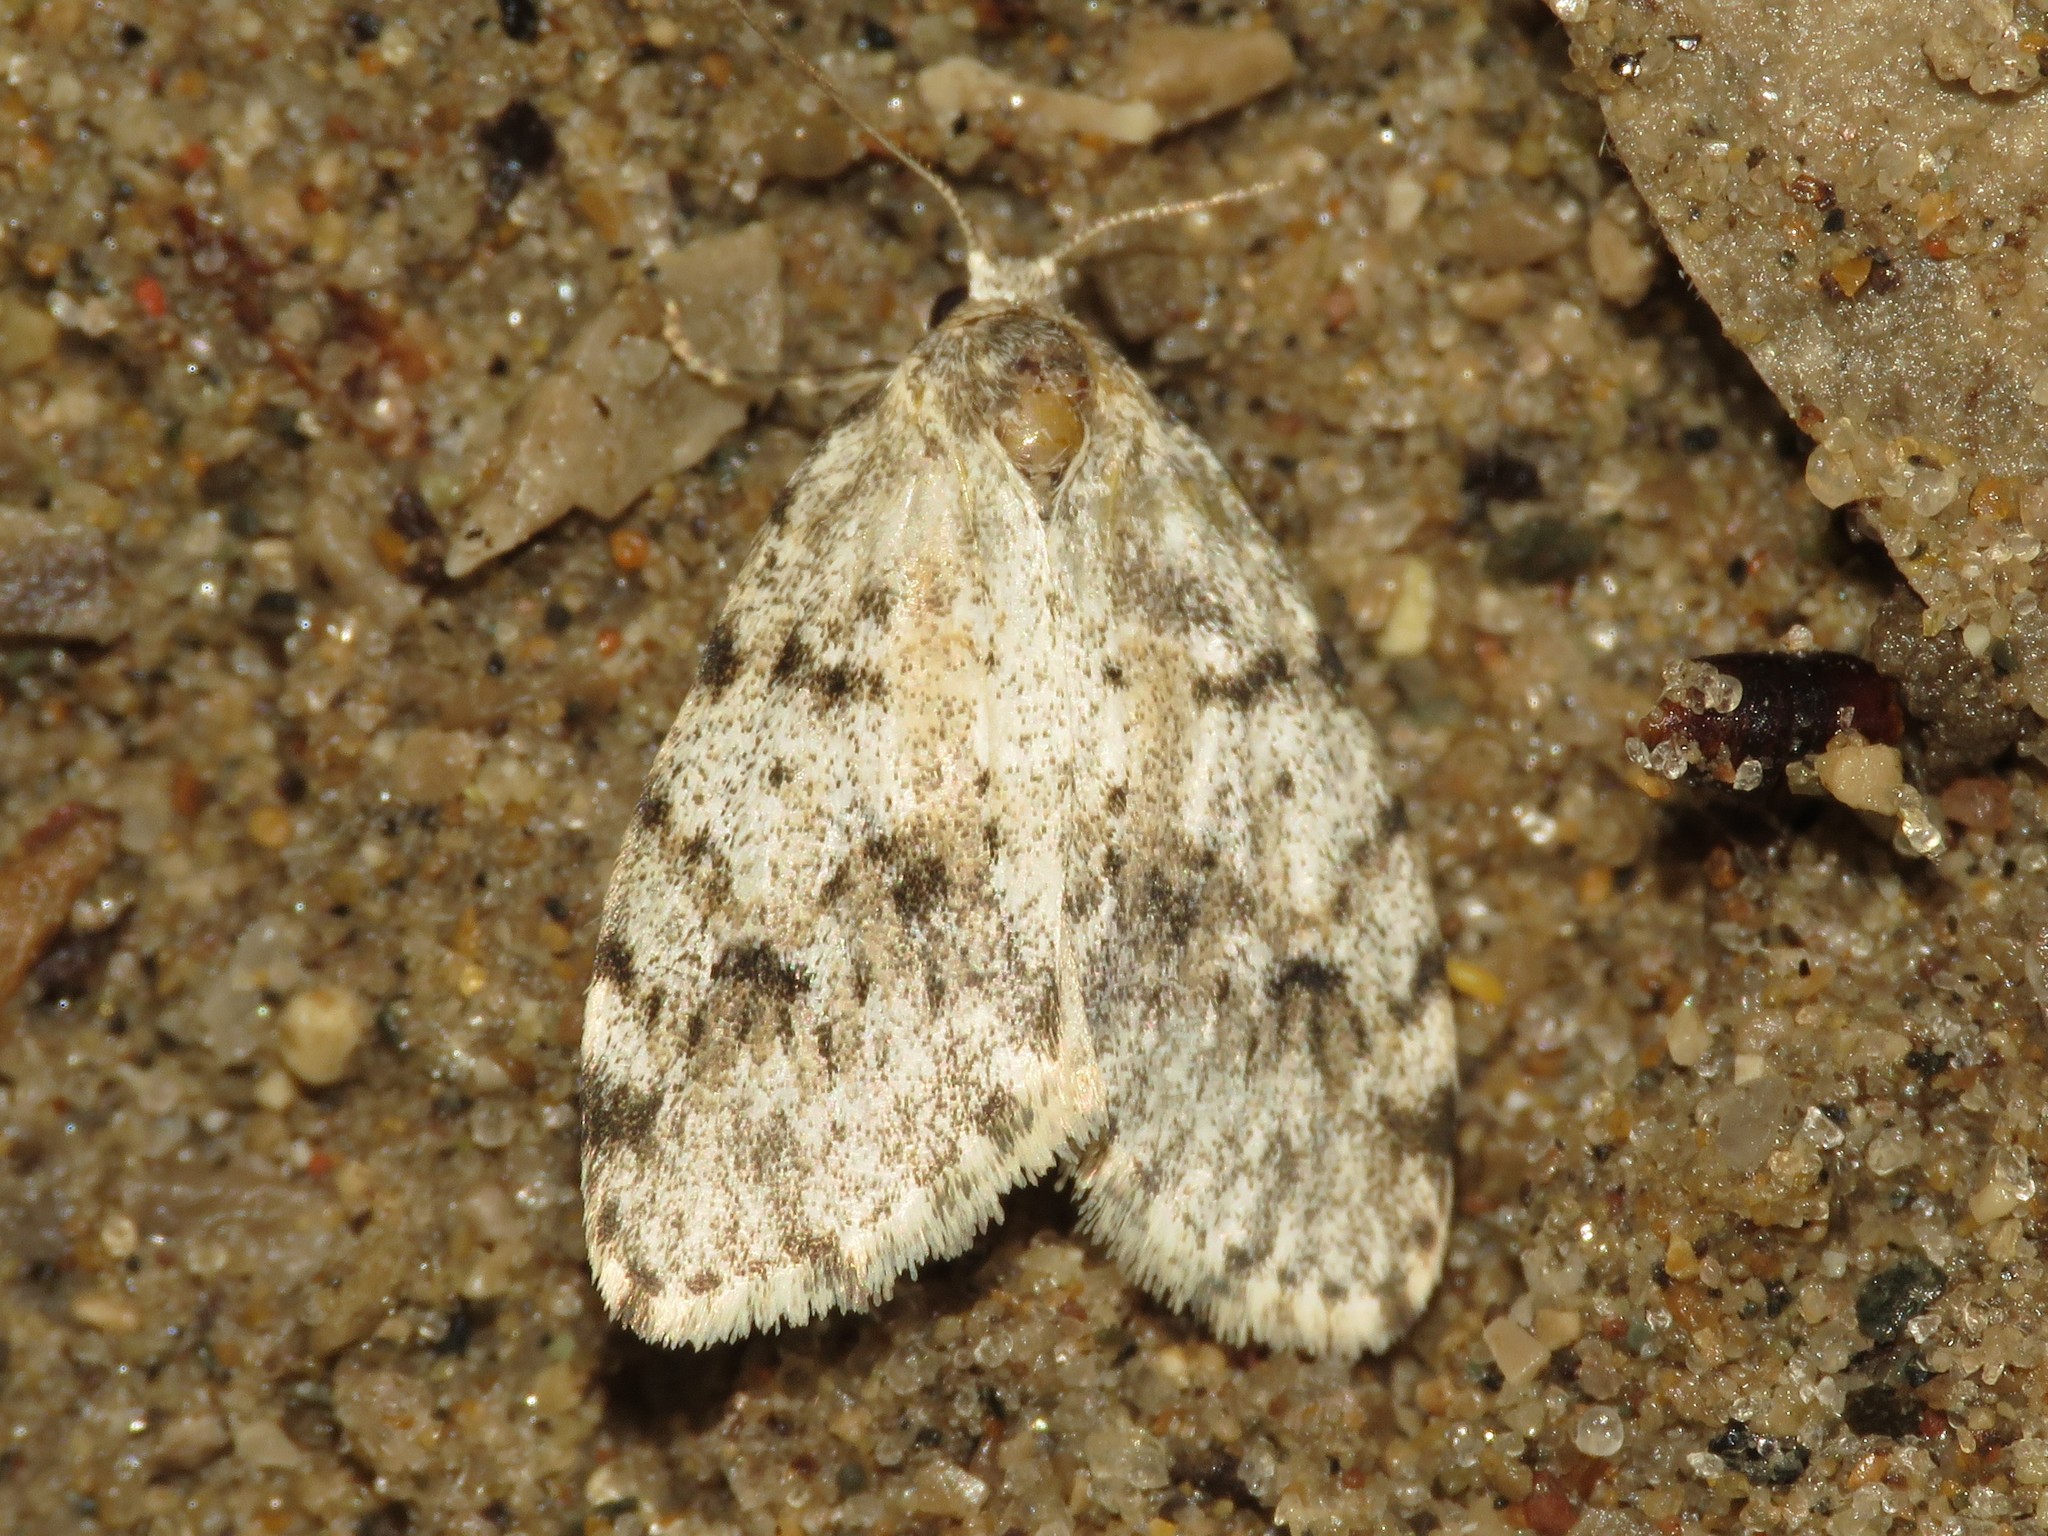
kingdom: Animalia
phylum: Arthropoda
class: Insecta
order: Lepidoptera
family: Erebidae
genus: Clemensia
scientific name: Clemensia albata
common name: Little white lichen moth
